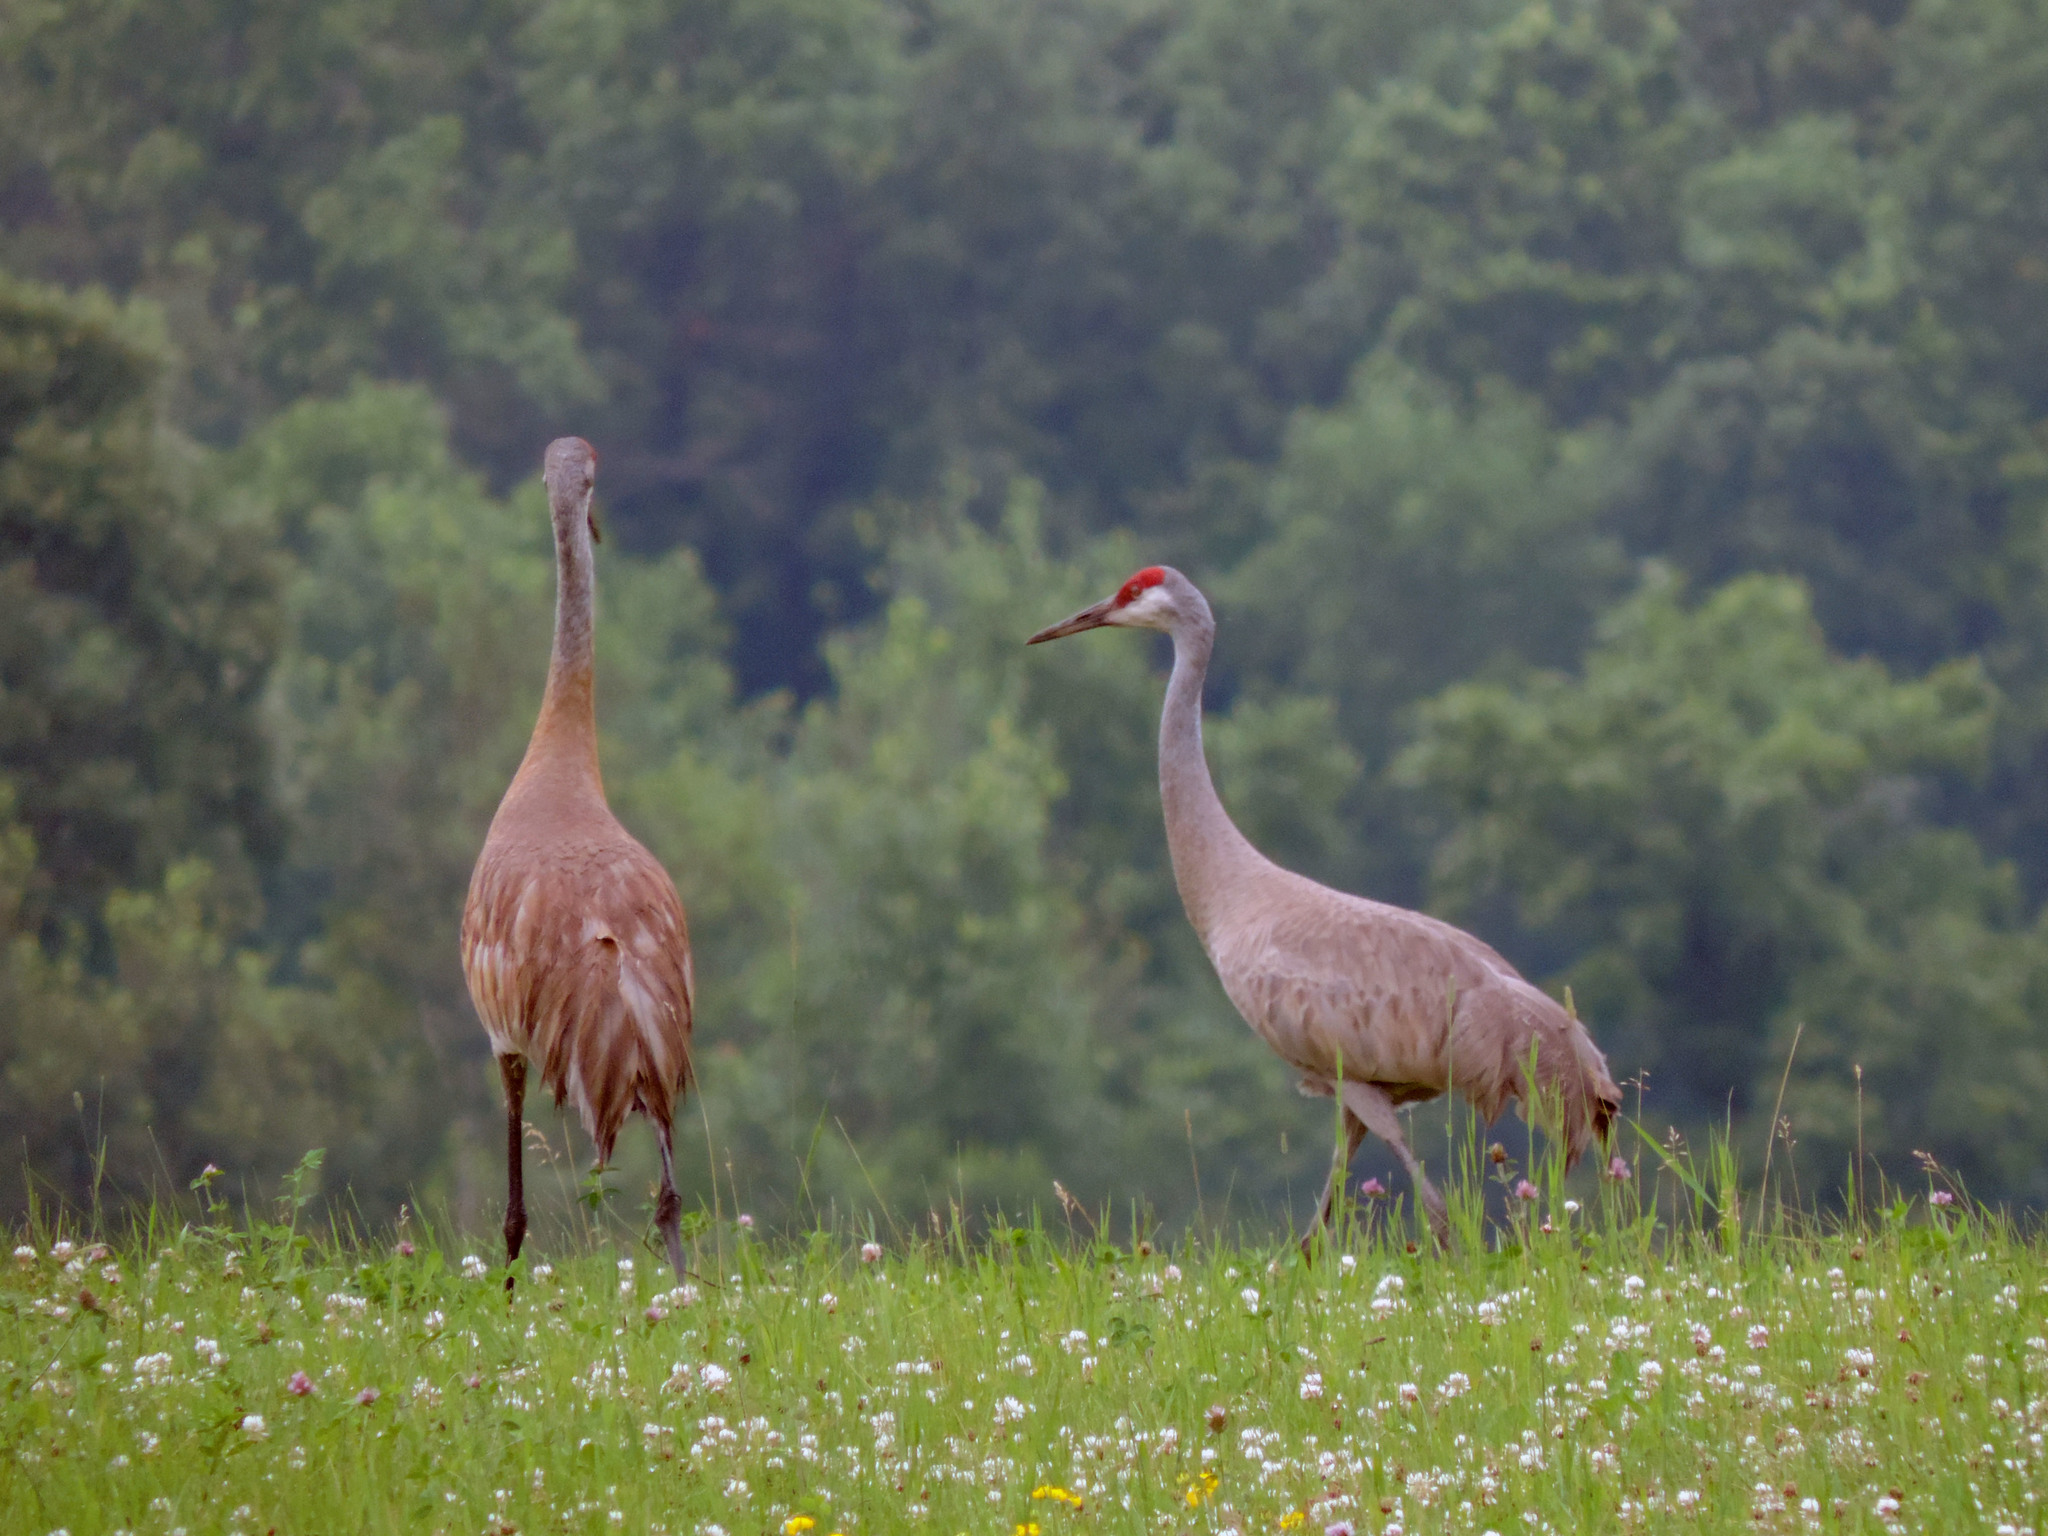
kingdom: Animalia
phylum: Chordata
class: Aves
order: Gruiformes
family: Gruidae
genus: Grus
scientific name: Grus canadensis
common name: Sandhill crane
